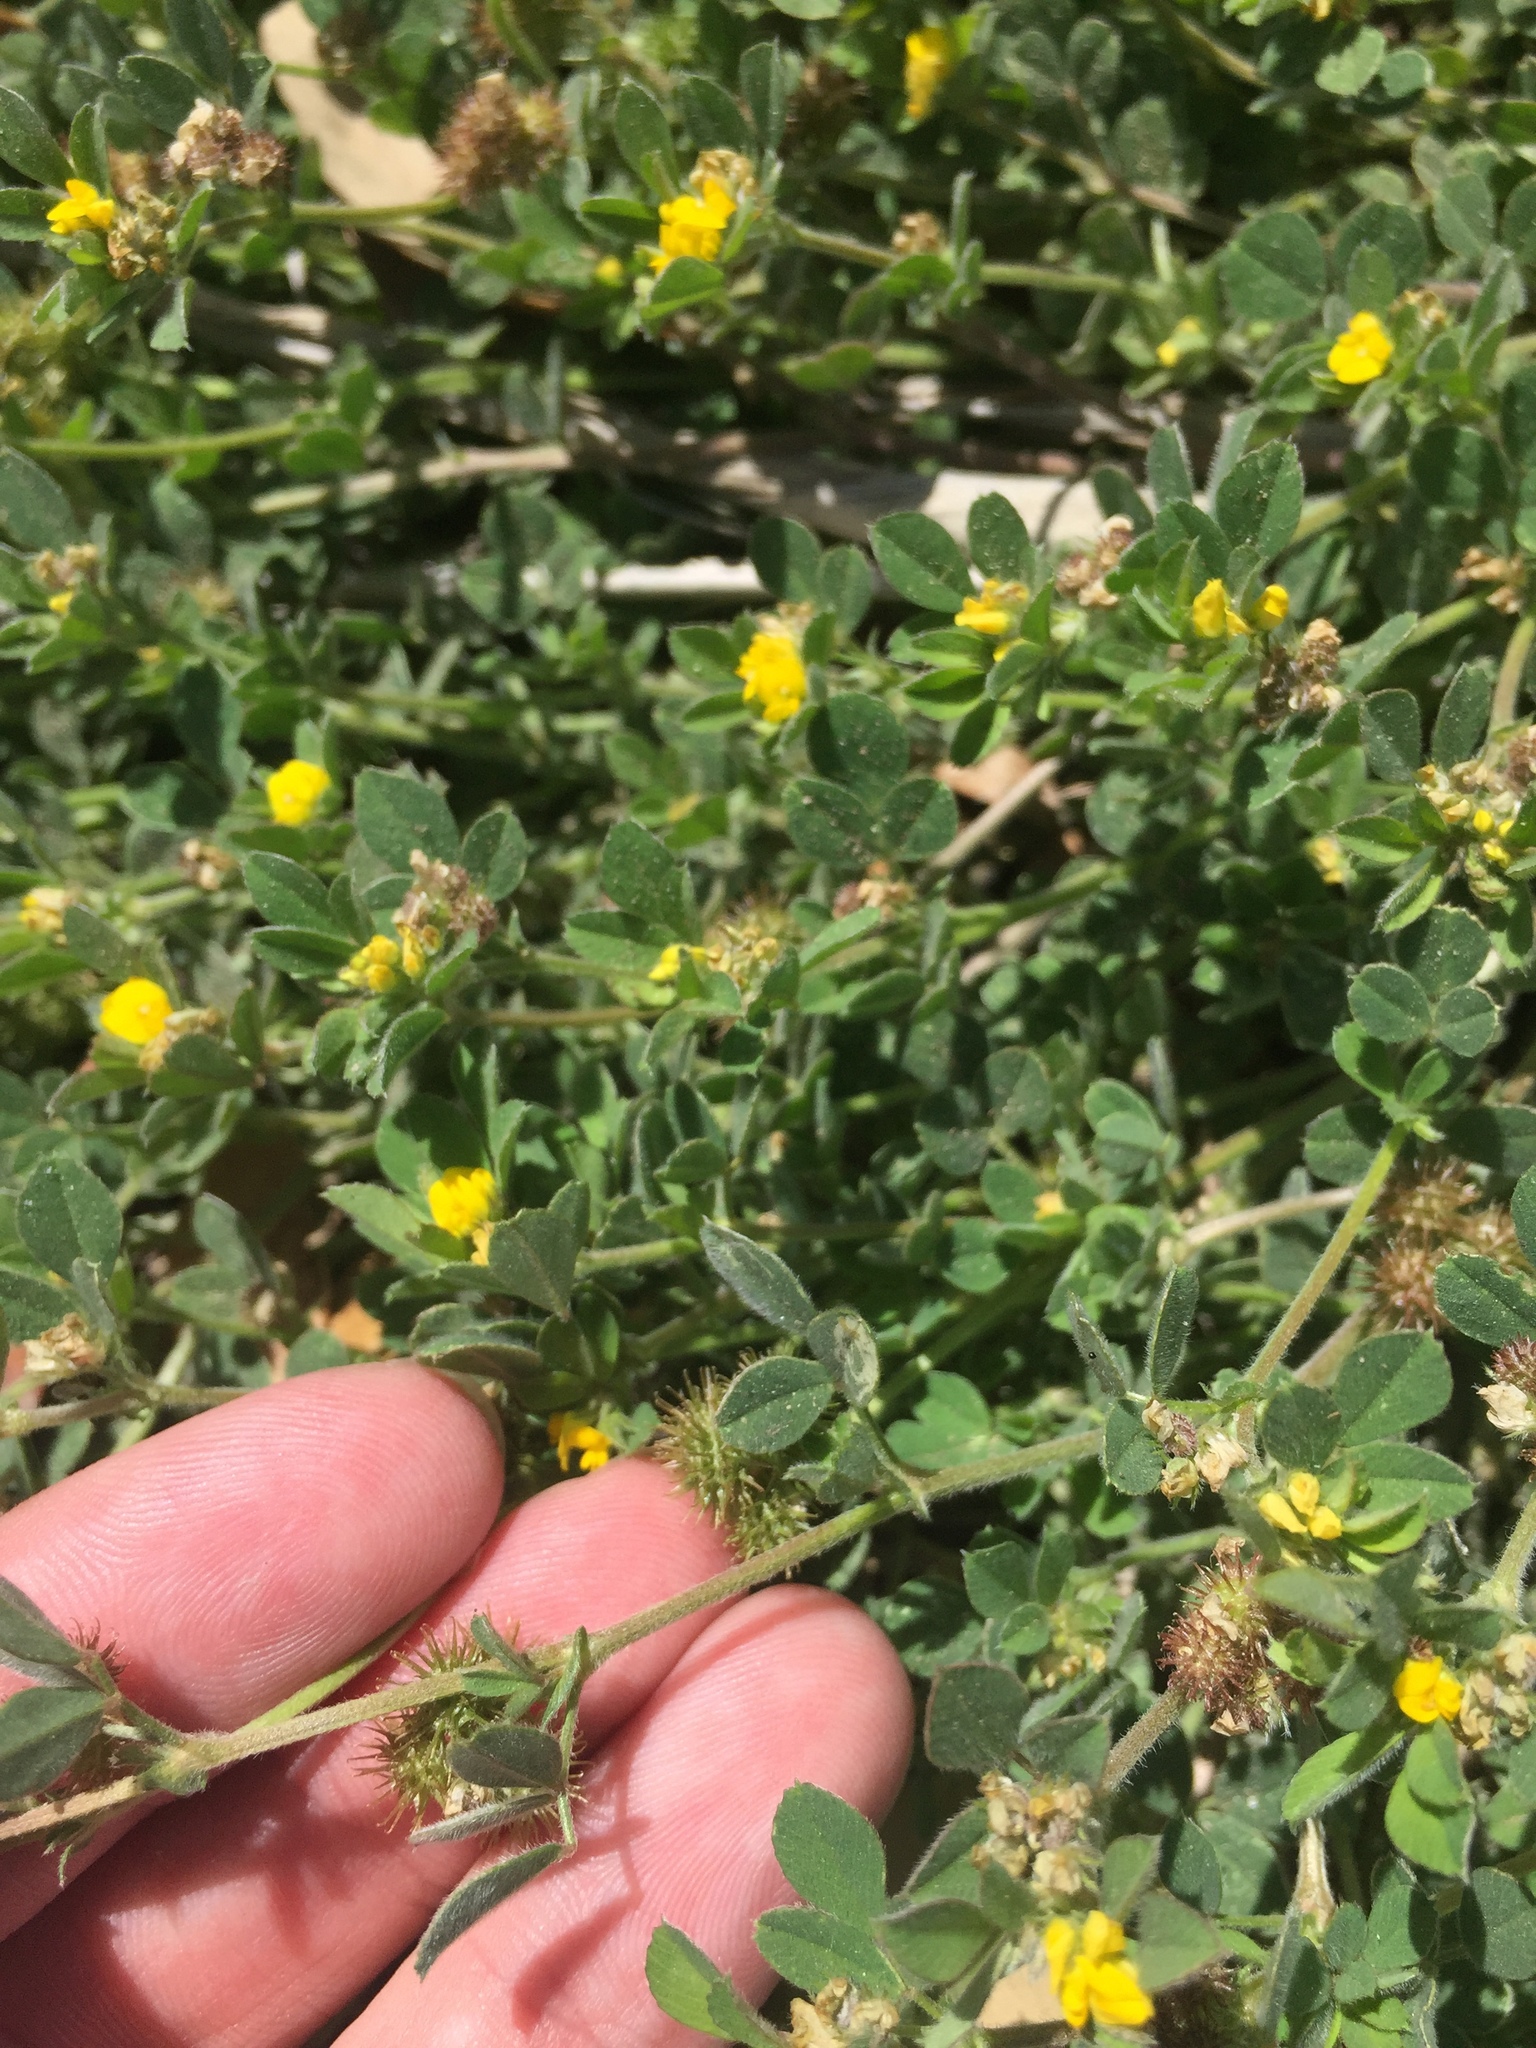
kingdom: Plantae
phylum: Tracheophyta
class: Magnoliopsida
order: Fabales
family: Fabaceae
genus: Medicago
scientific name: Medicago minima
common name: Little bur-clover
